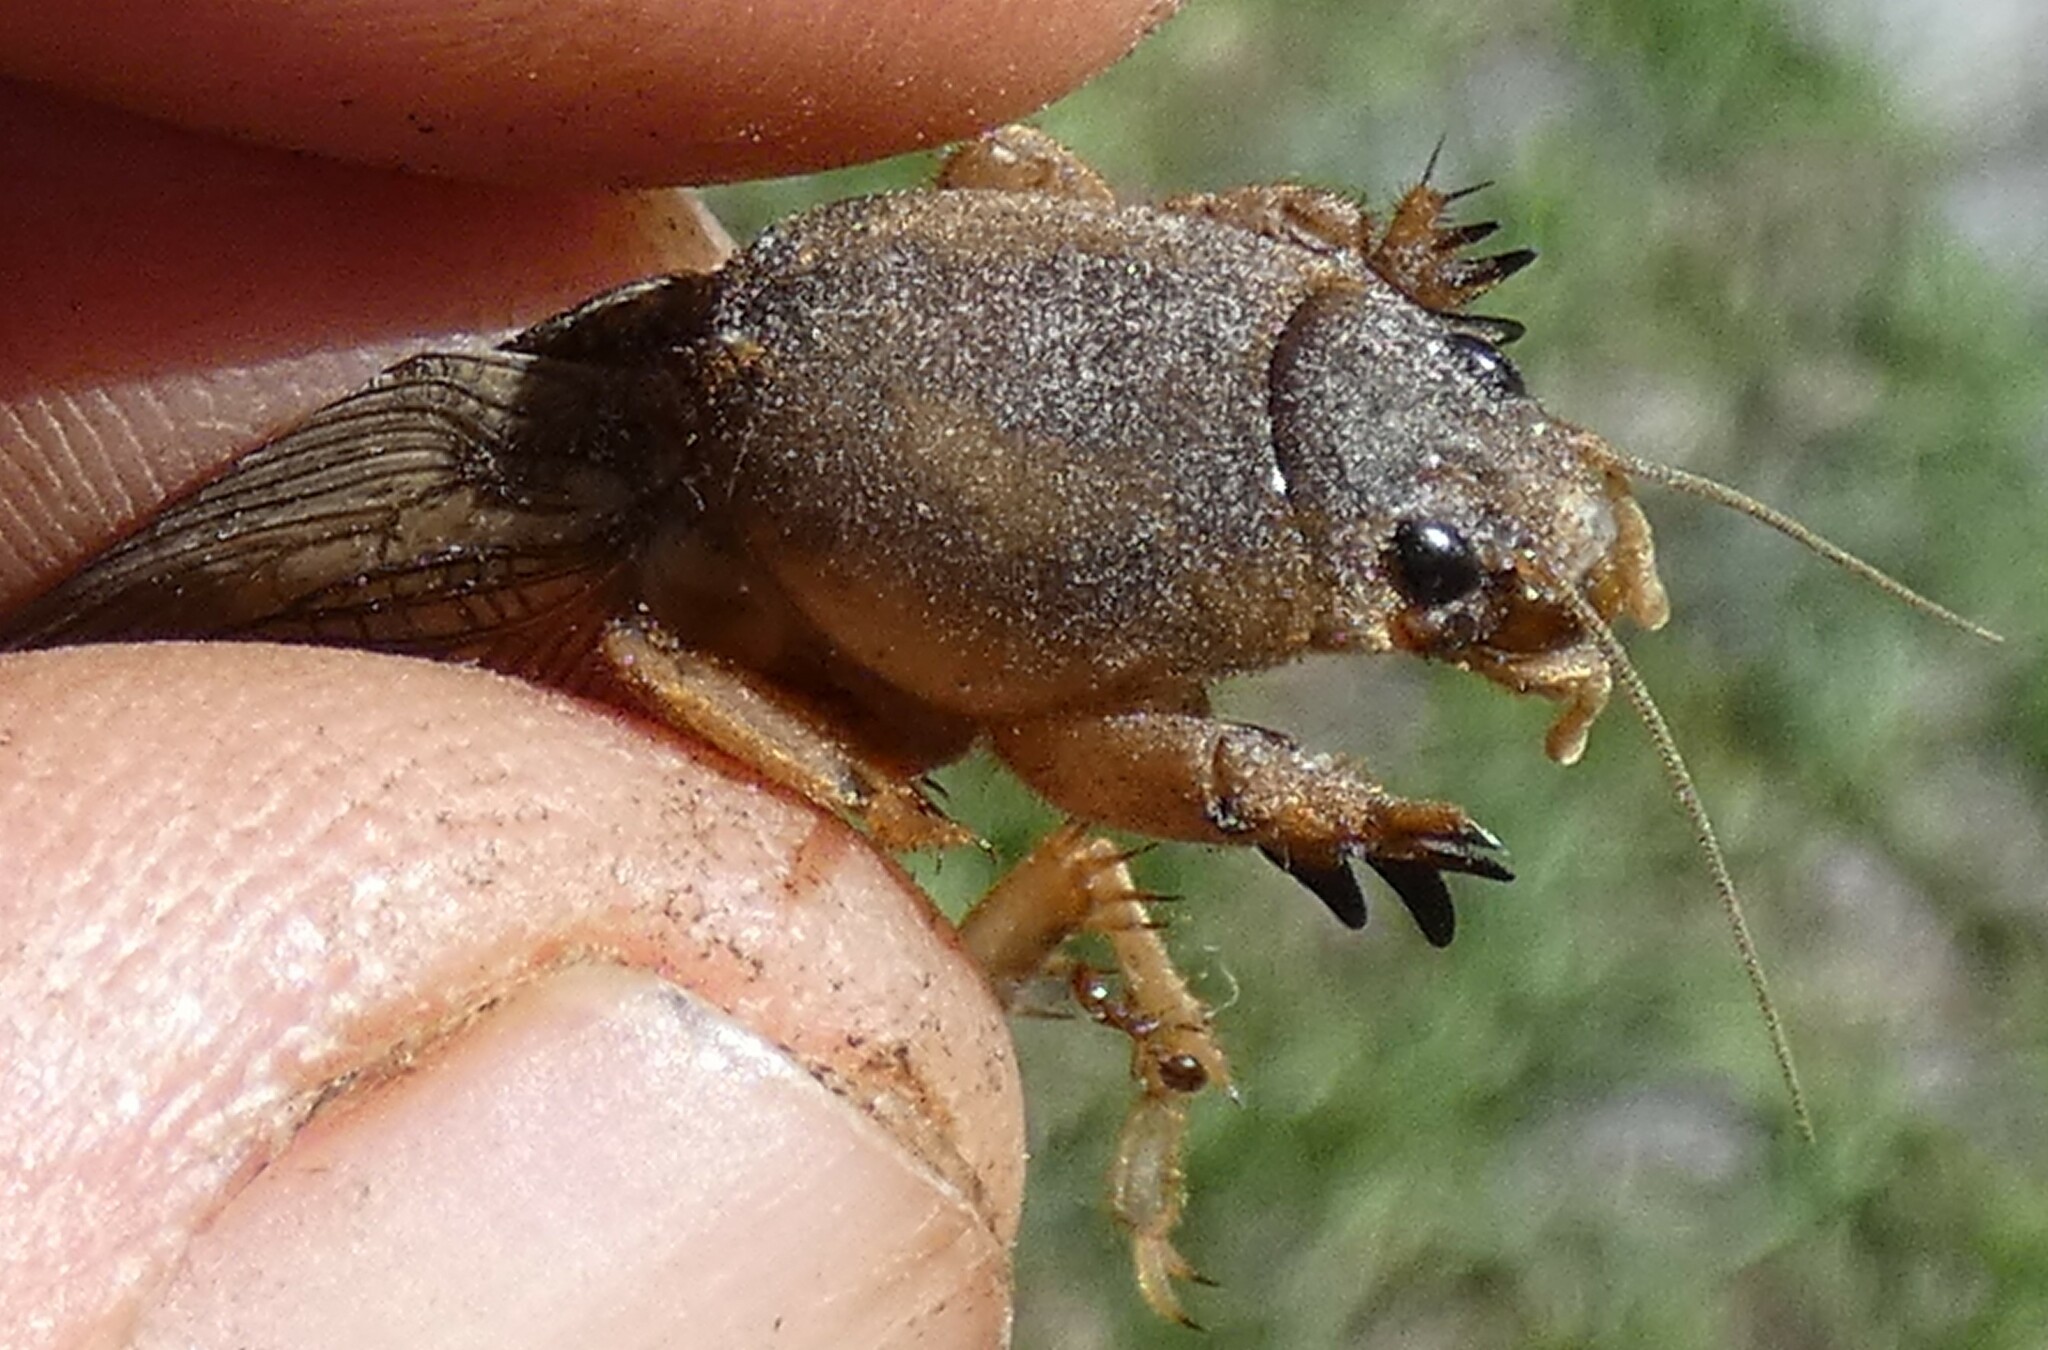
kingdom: Animalia
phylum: Arthropoda
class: Insecta
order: Orthoptera
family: Gryllotalpidae
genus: Neoscapteriscus
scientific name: Neoscapteriscus vicinus
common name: Tawny mole cricket
